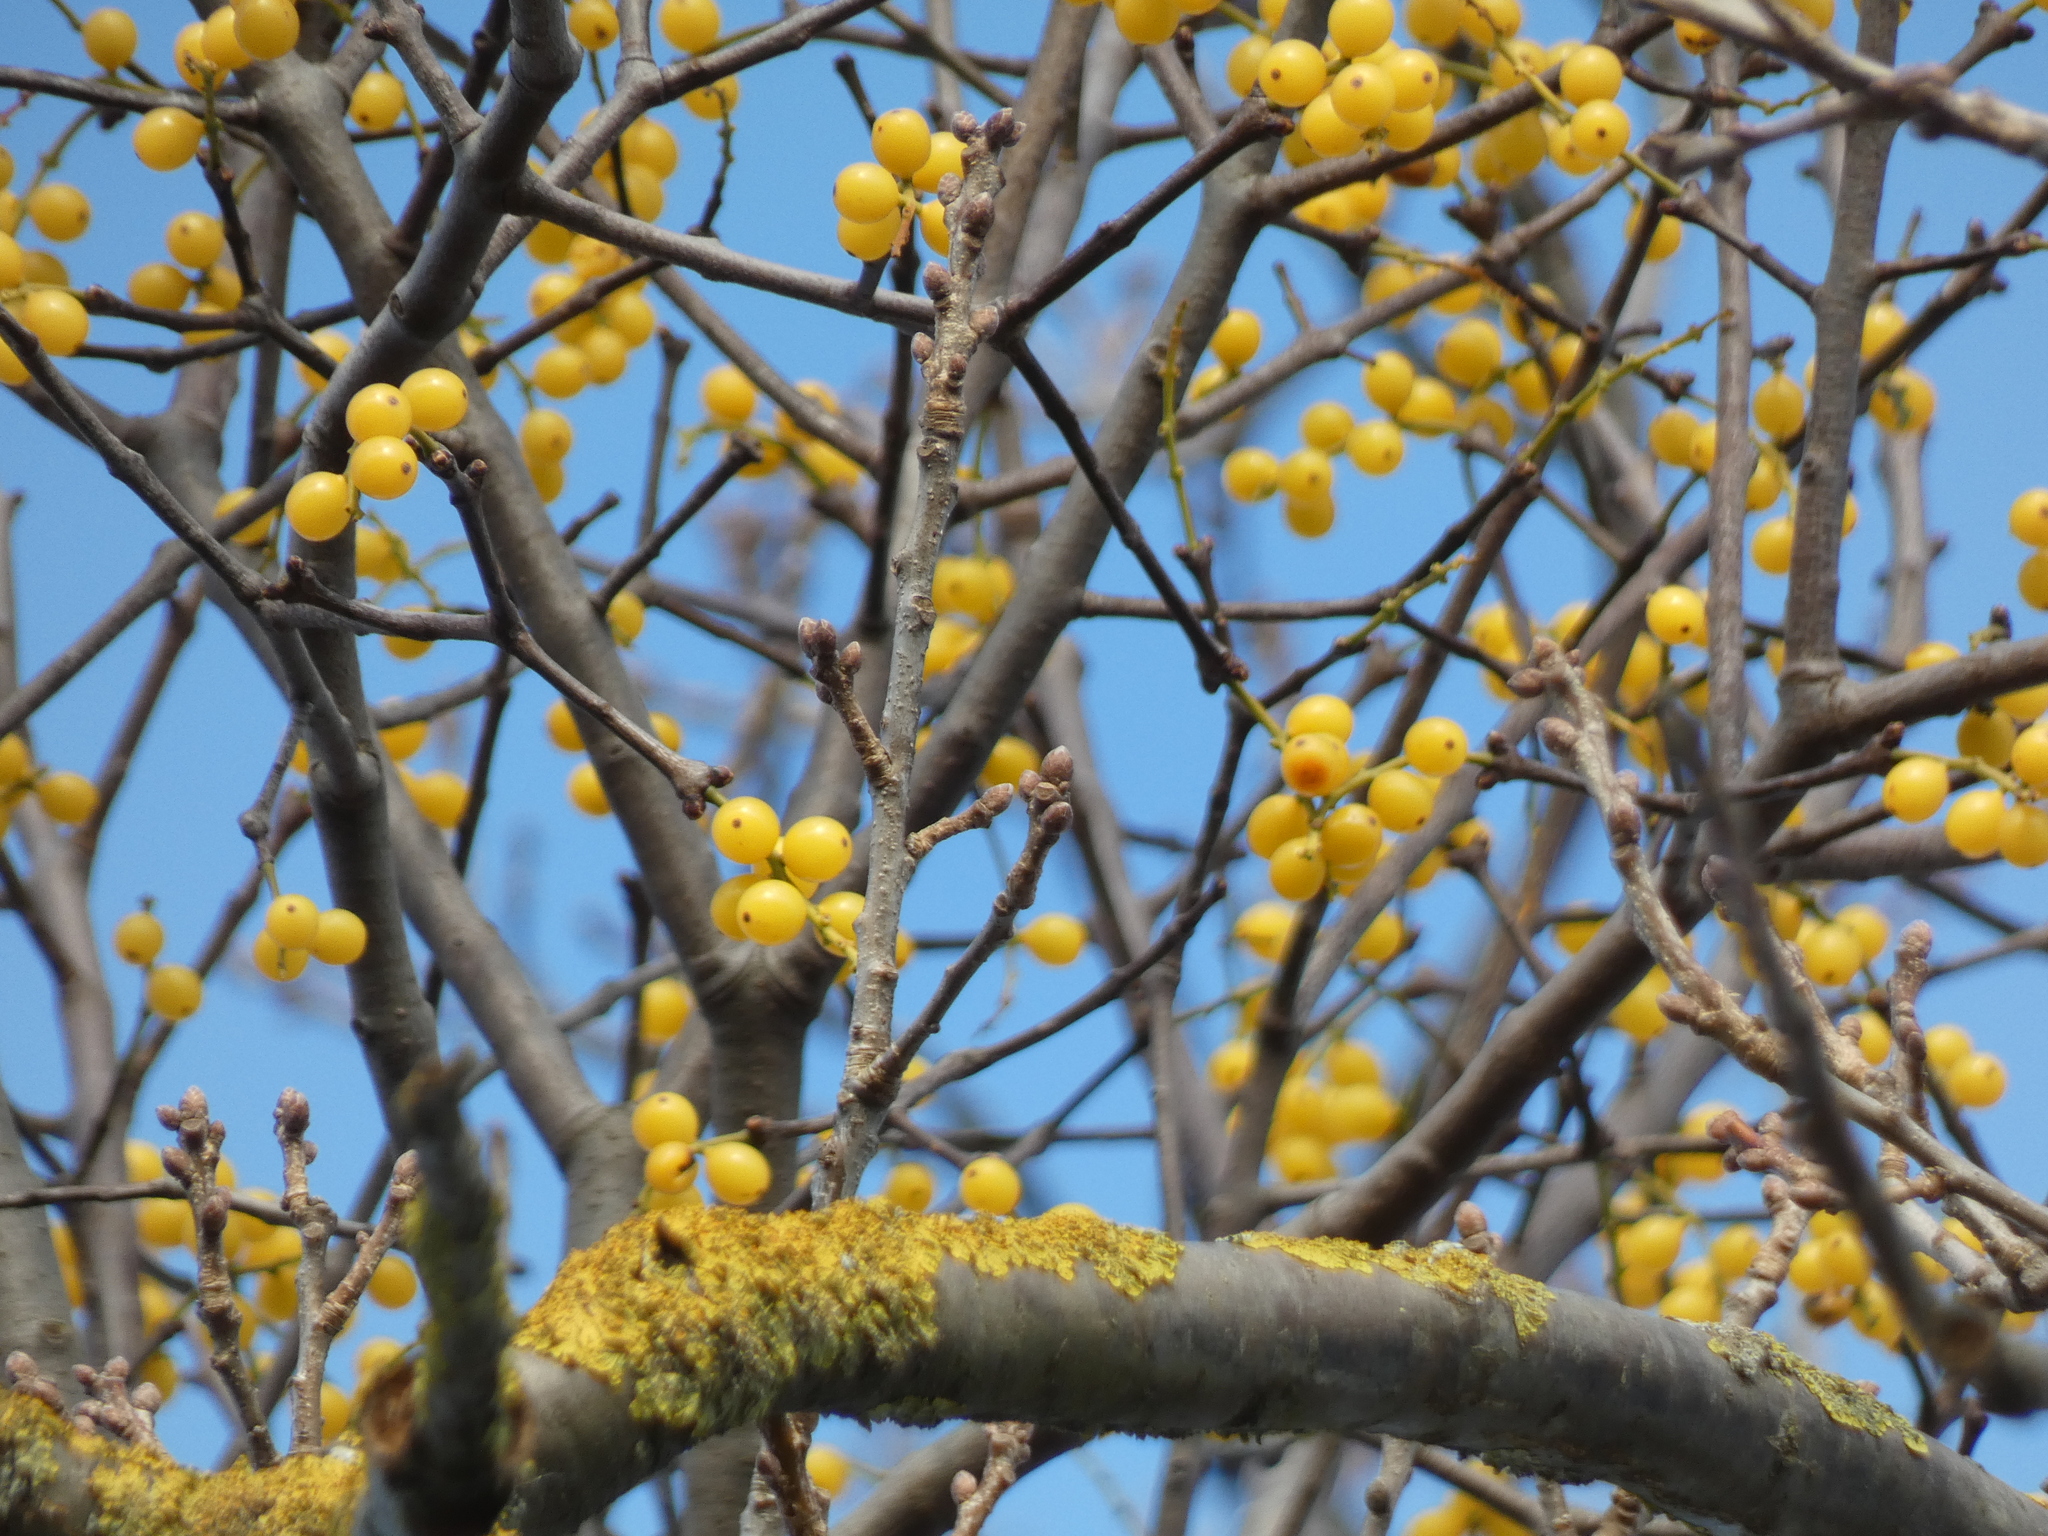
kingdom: Plantae
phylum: Tracheophyta
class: Magnoliopsida
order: Santalales
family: Loranthaceae
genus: Loranthus
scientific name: Loranthus europaeus
